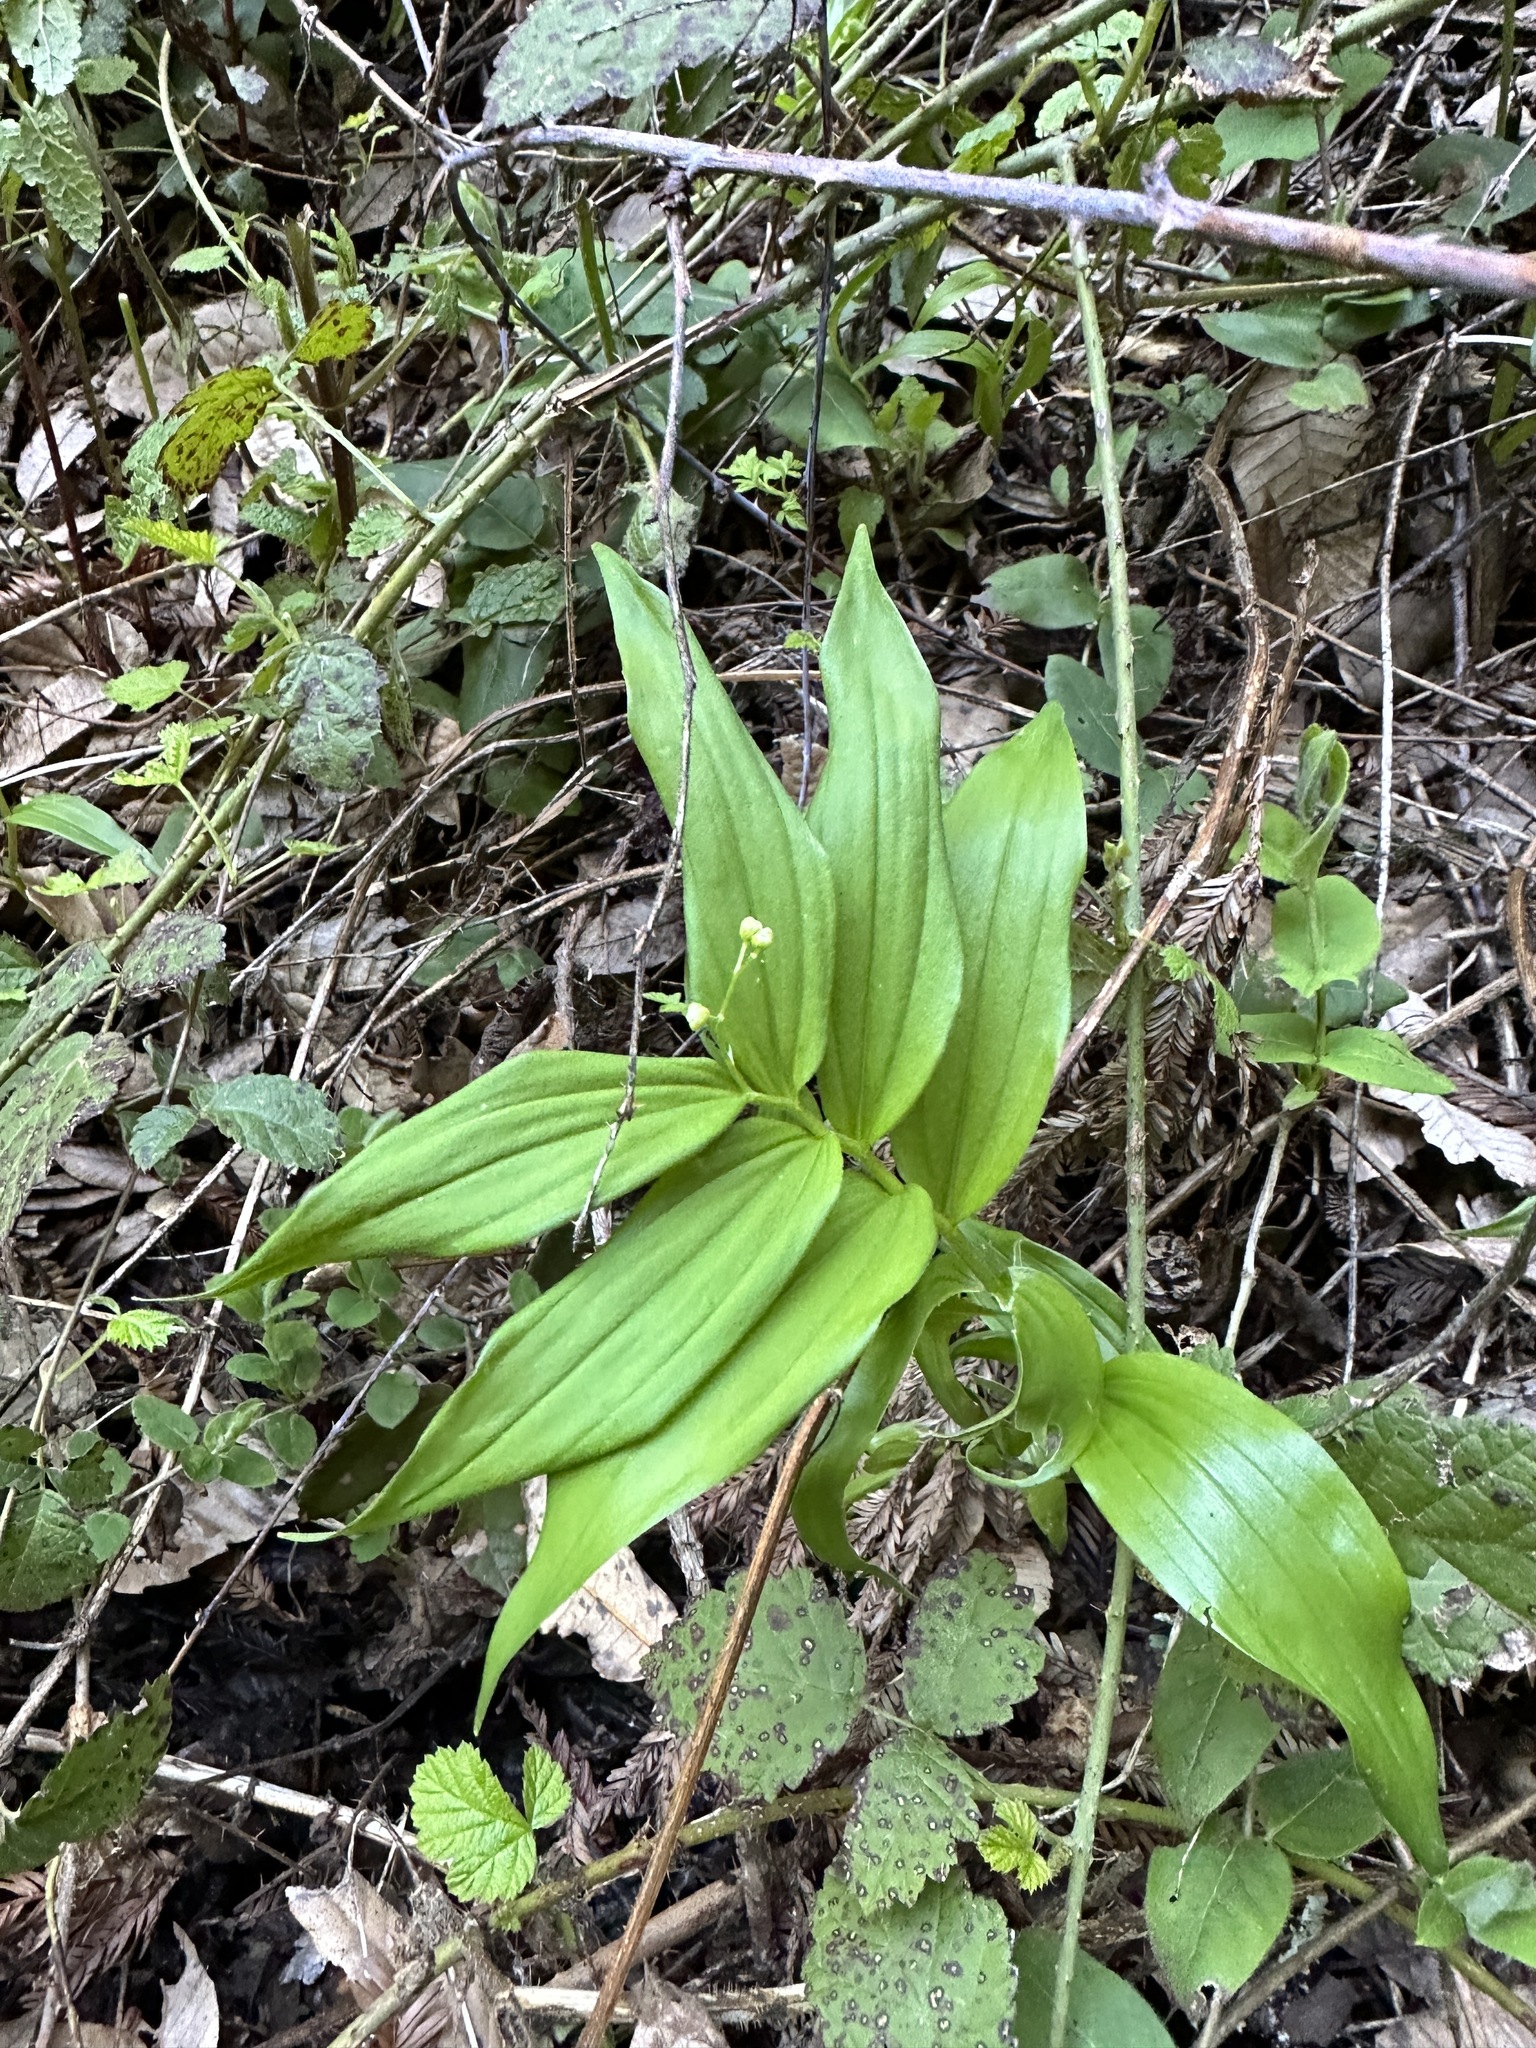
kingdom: Plantae
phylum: Tracheophyta
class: Liliopsida
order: Asparagales
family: Asparagaceae
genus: Maianthemum
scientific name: Maianthemum stellatum
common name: Little false solomon's seal
